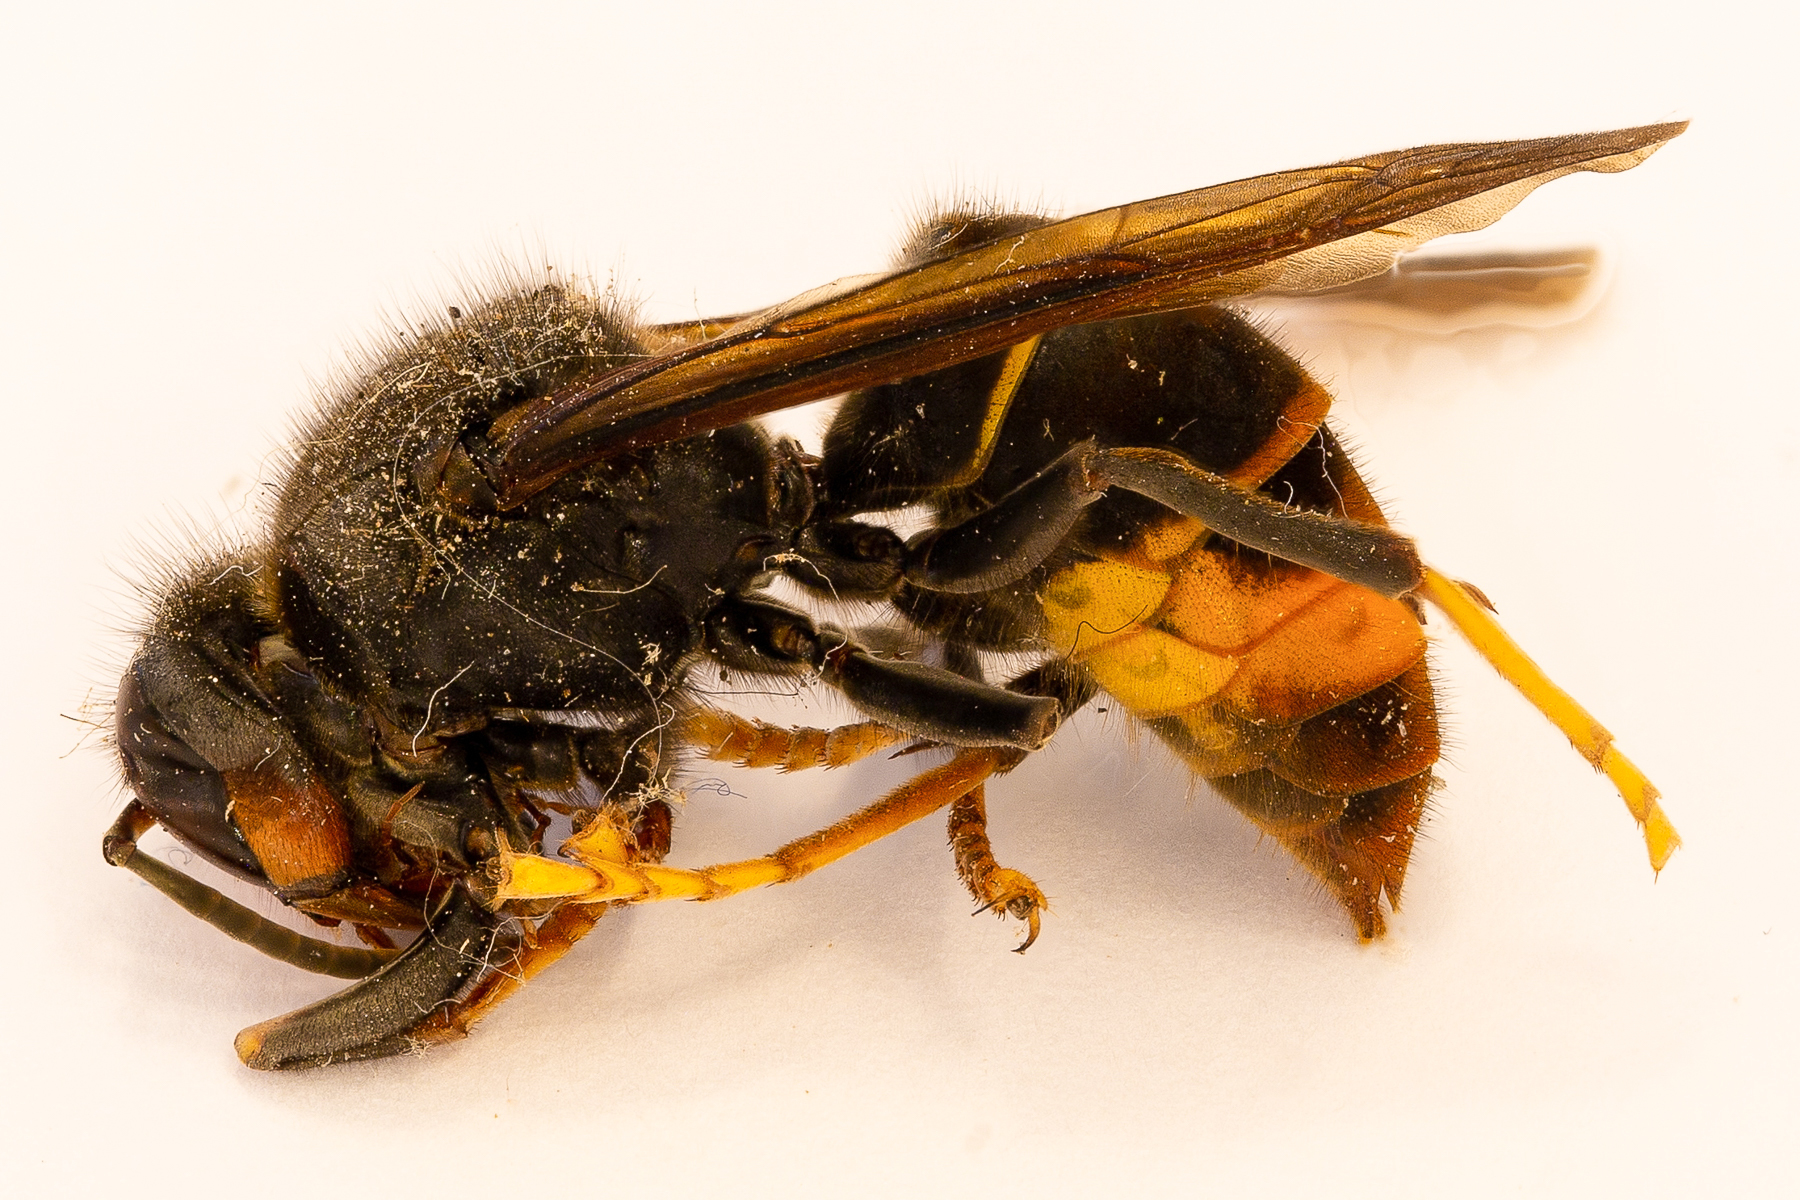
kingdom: Animalia
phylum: Arthropoda
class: Insecta
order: Hymenoptera
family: Vespidae
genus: Vespa
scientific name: Vespa velutina
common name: Asian hornet
